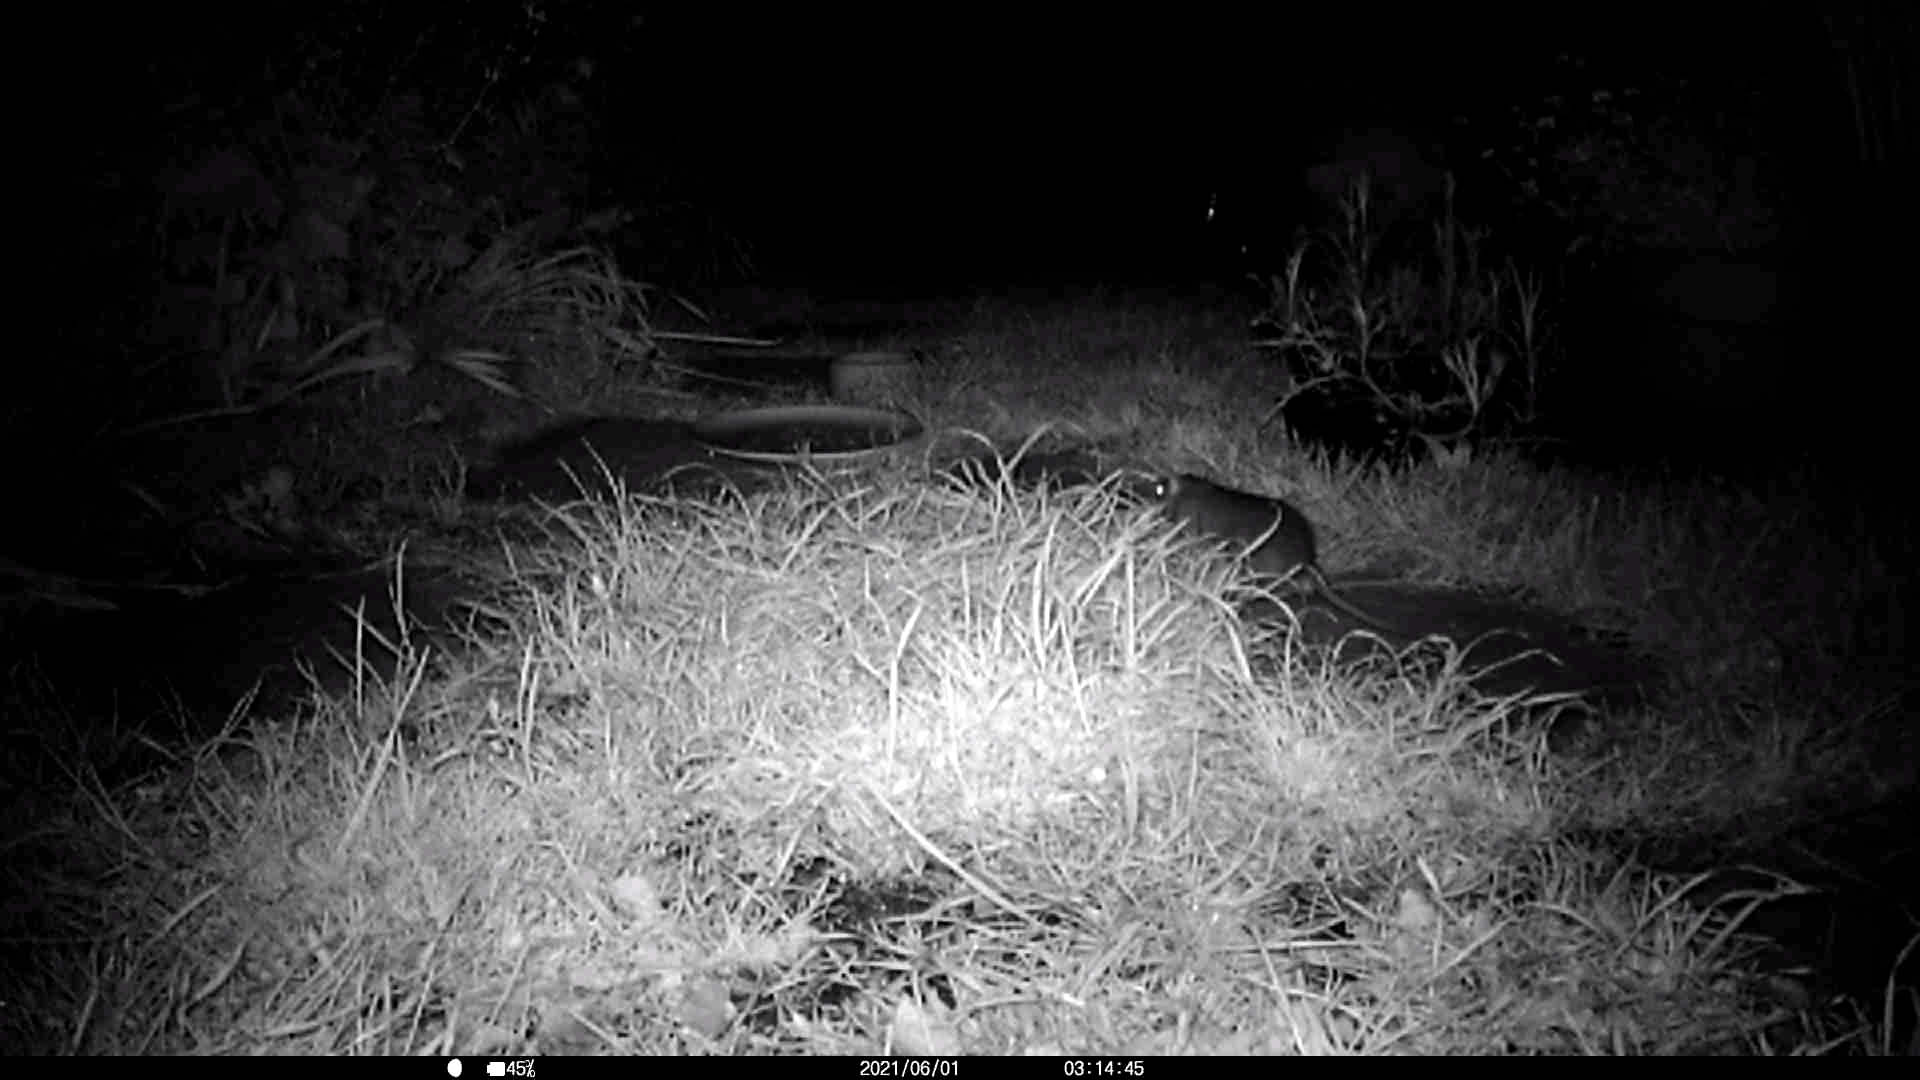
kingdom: Animalia
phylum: Chordata
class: Mammalia
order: Rodentia
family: Muridae
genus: Rattus
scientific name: Rattus norvegicus
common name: Brown rat
